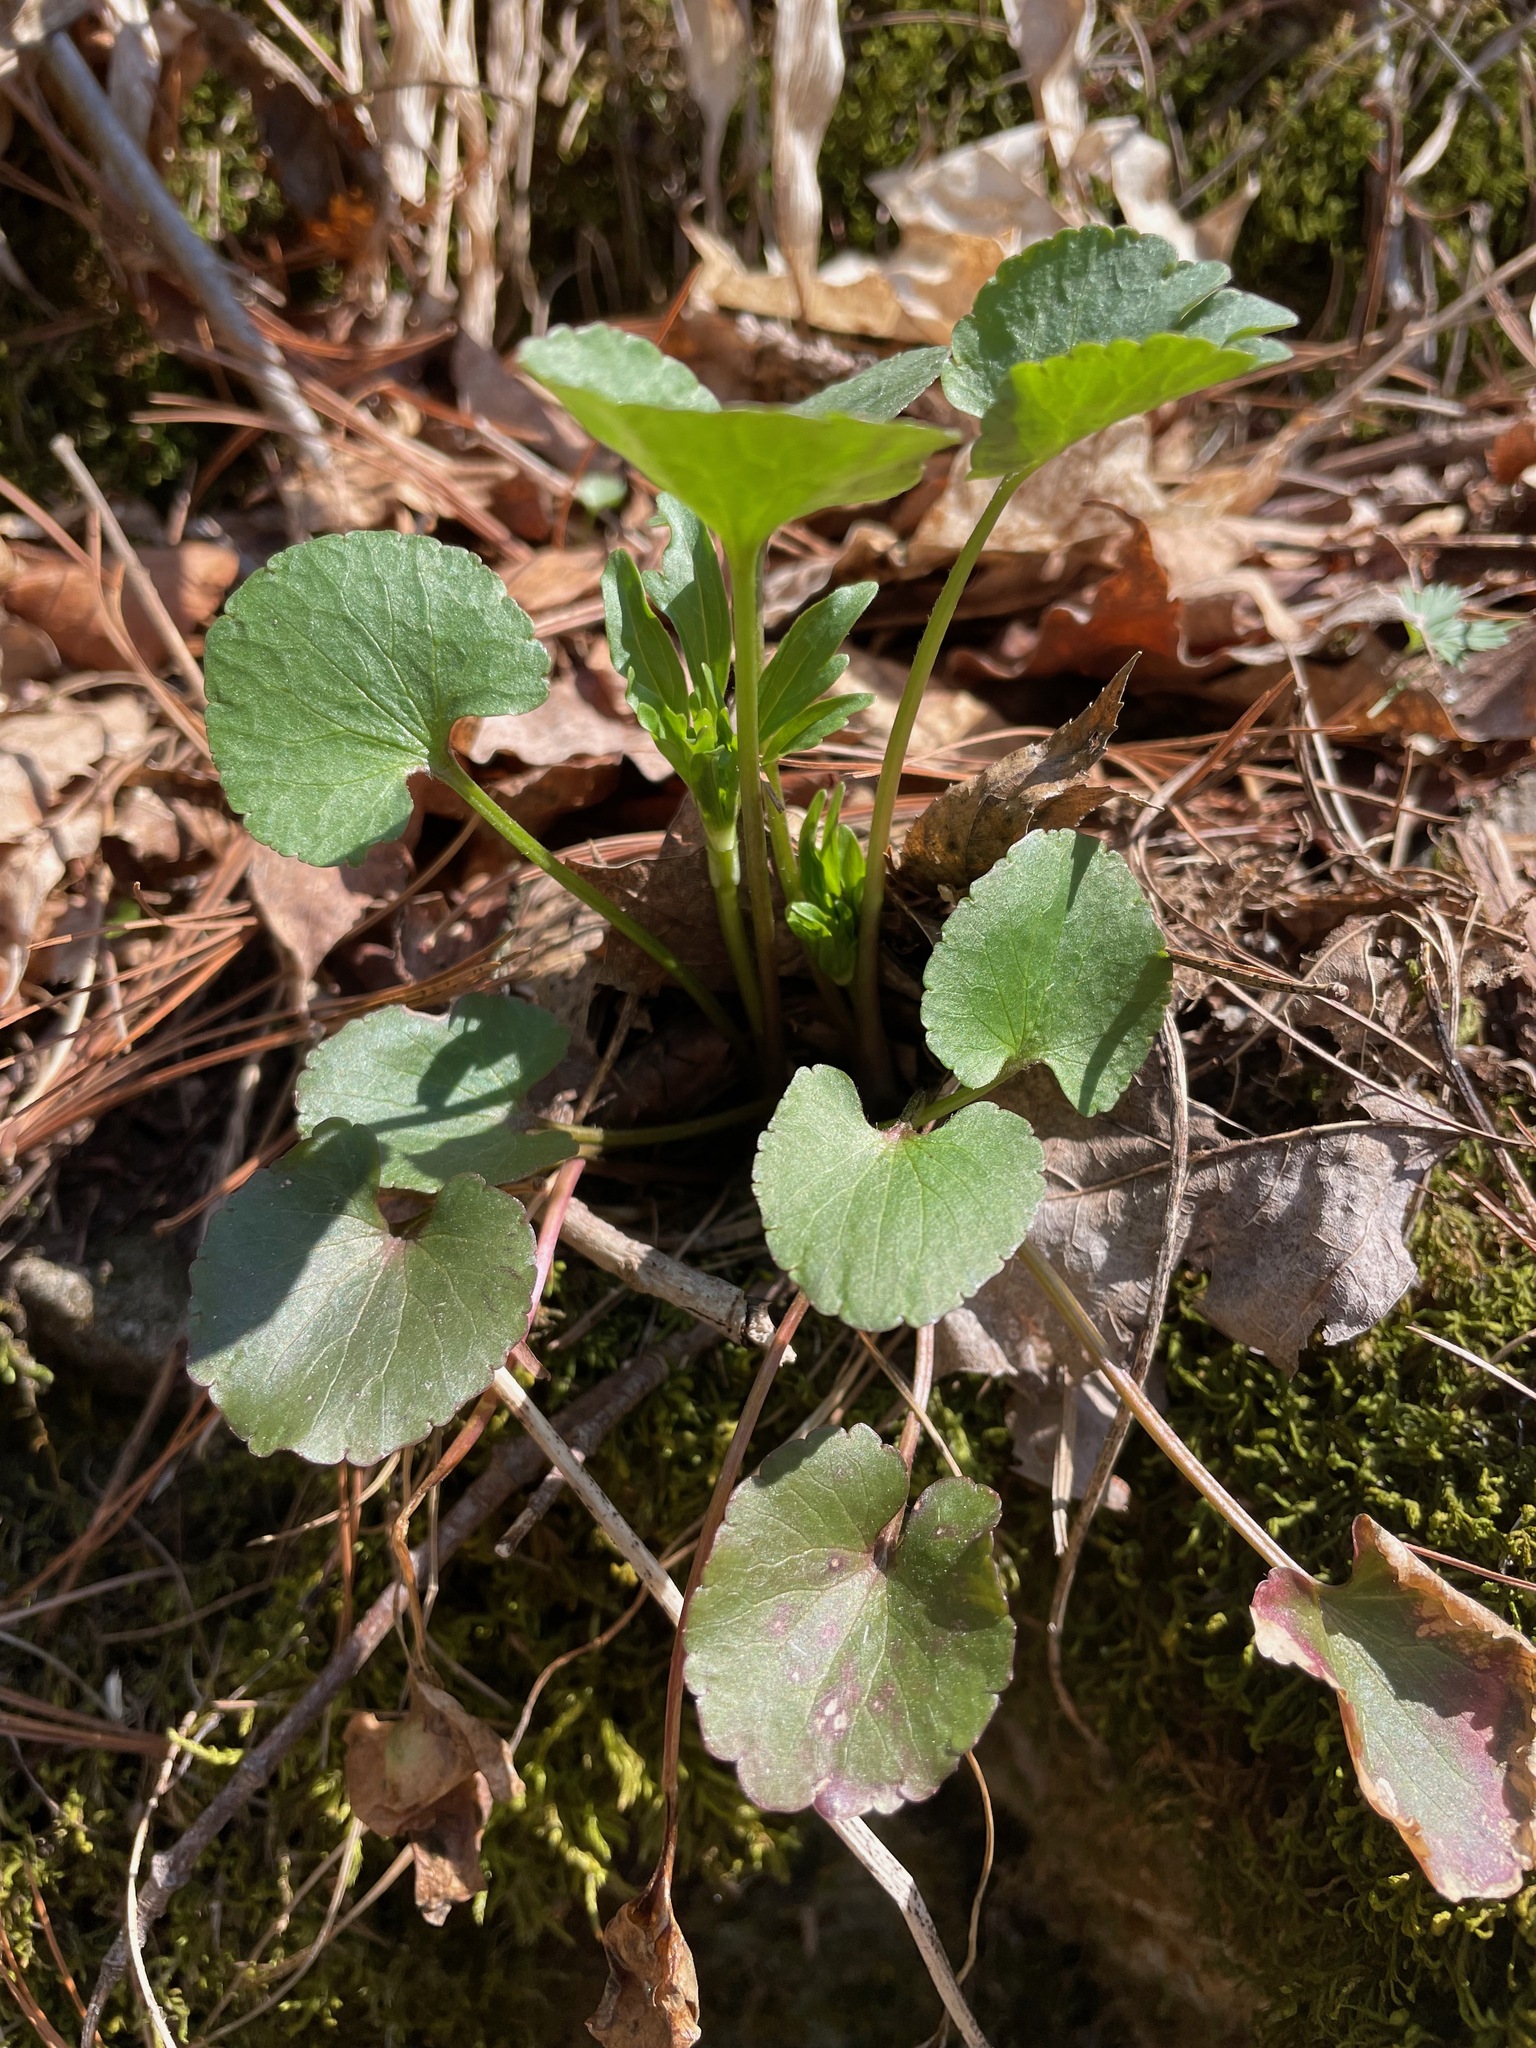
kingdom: Plantae
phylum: Tracheophyta
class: Magnoliopsida
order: Ranunculales
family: Ranunculaceae
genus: Ranunculus
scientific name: Ranunculus abortivus
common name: Early wood buttercup
